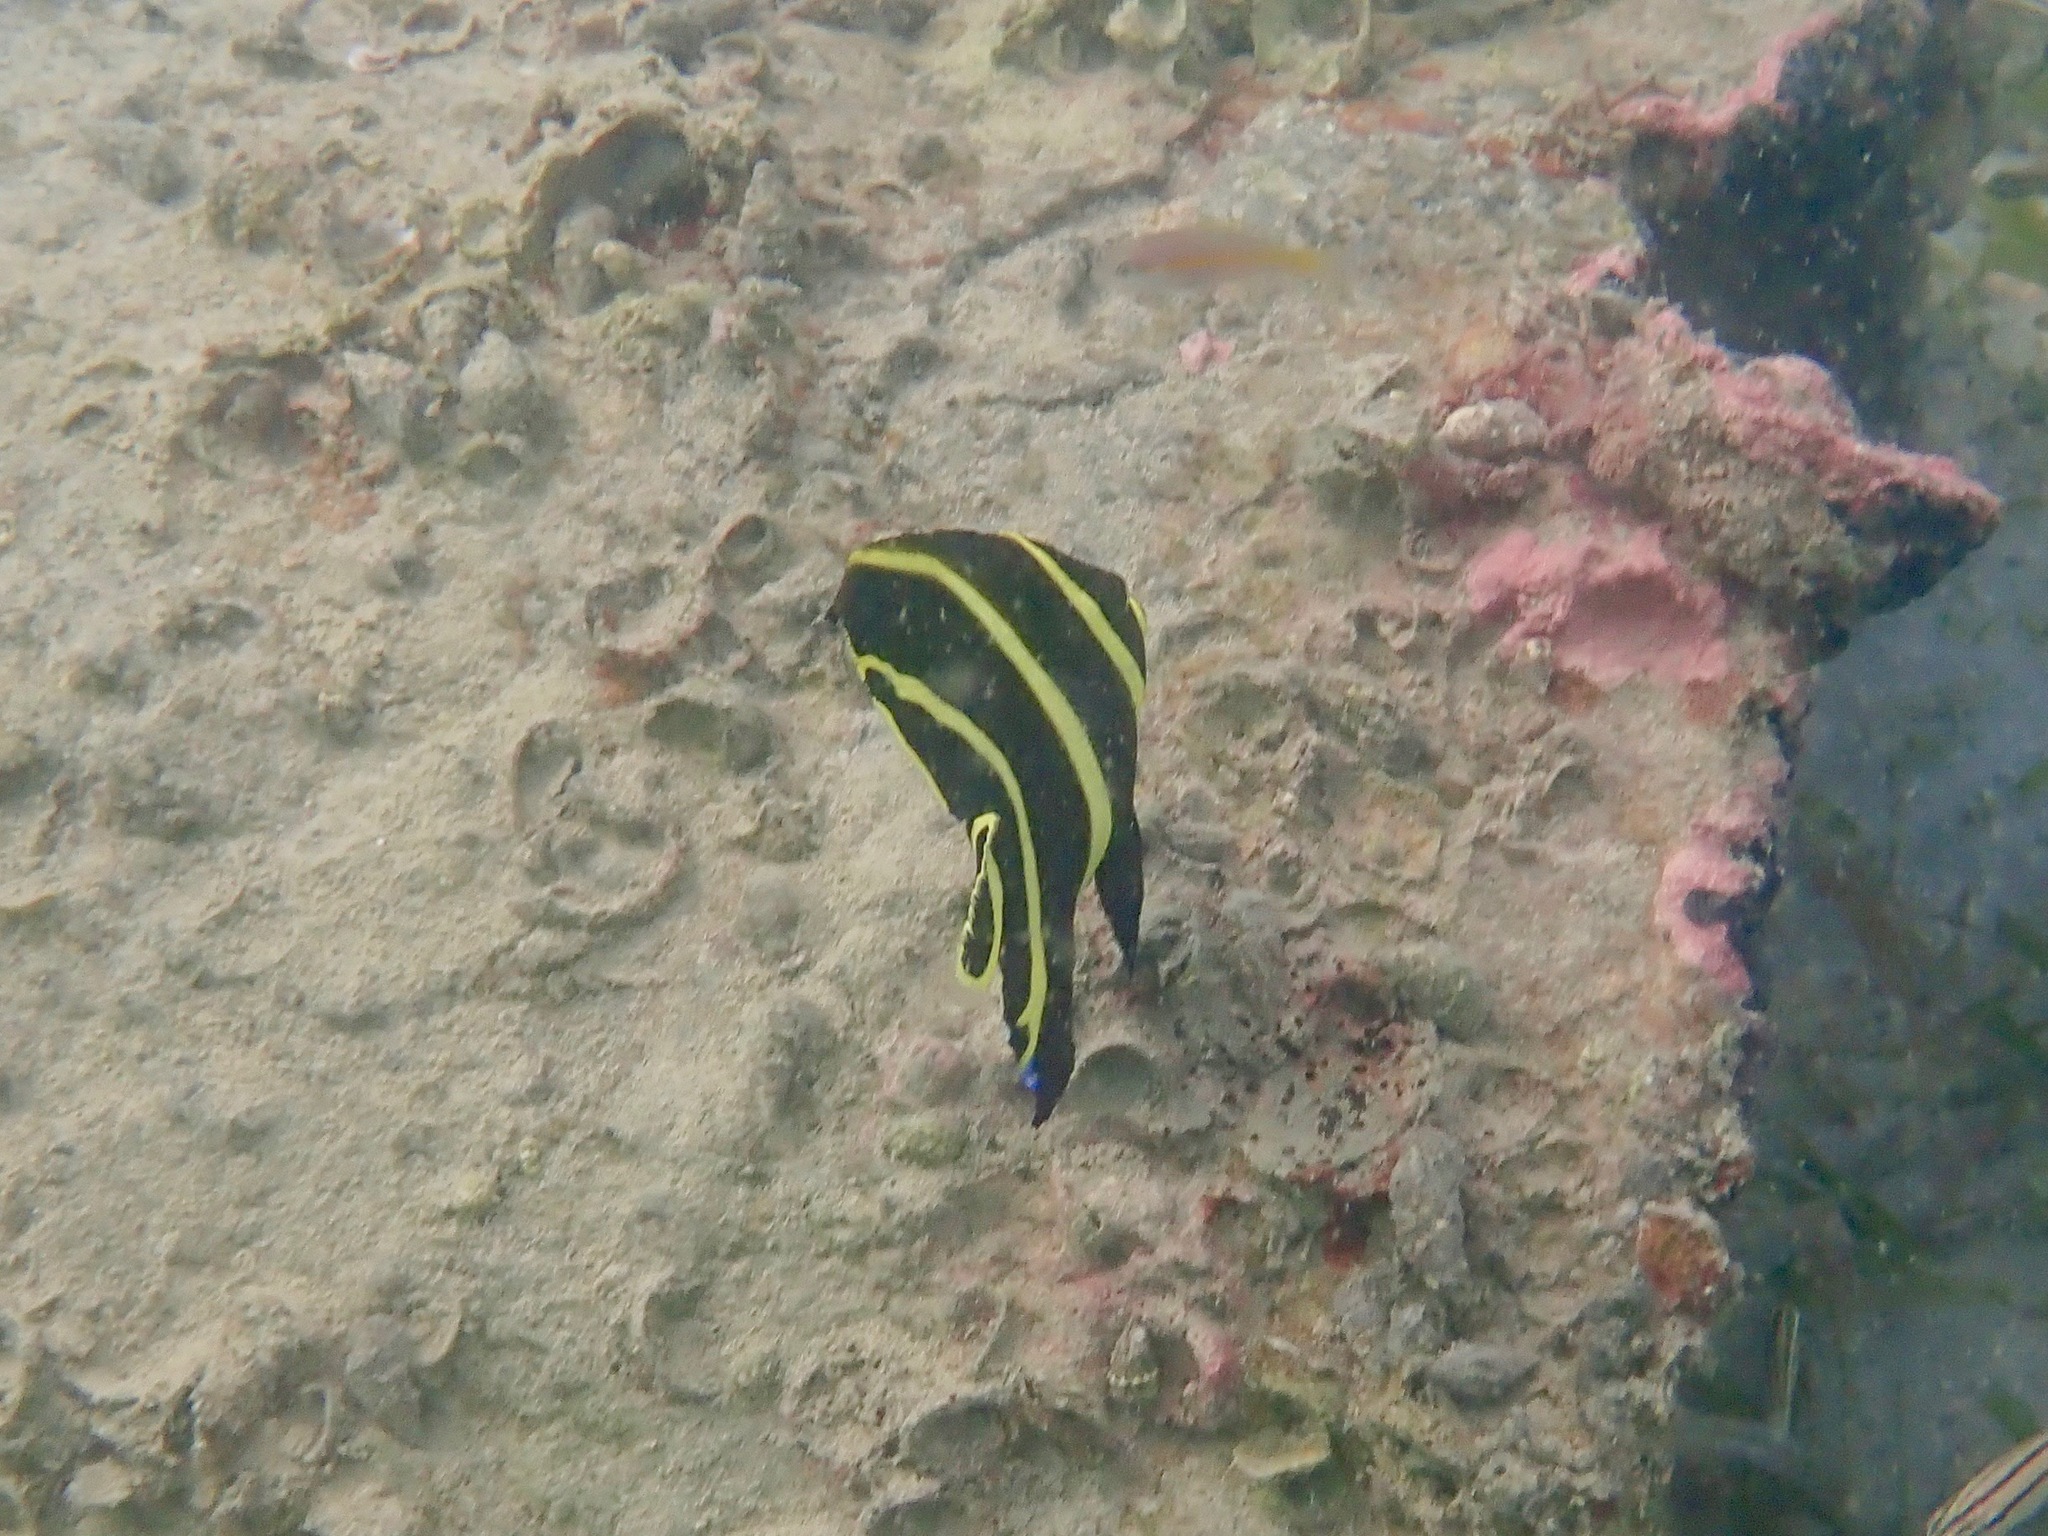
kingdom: Animalia
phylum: Chordata
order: Perciformes
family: Pomacanthidae
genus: Pomacanthus
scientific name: Pomacanthus paru
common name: French angelfish
